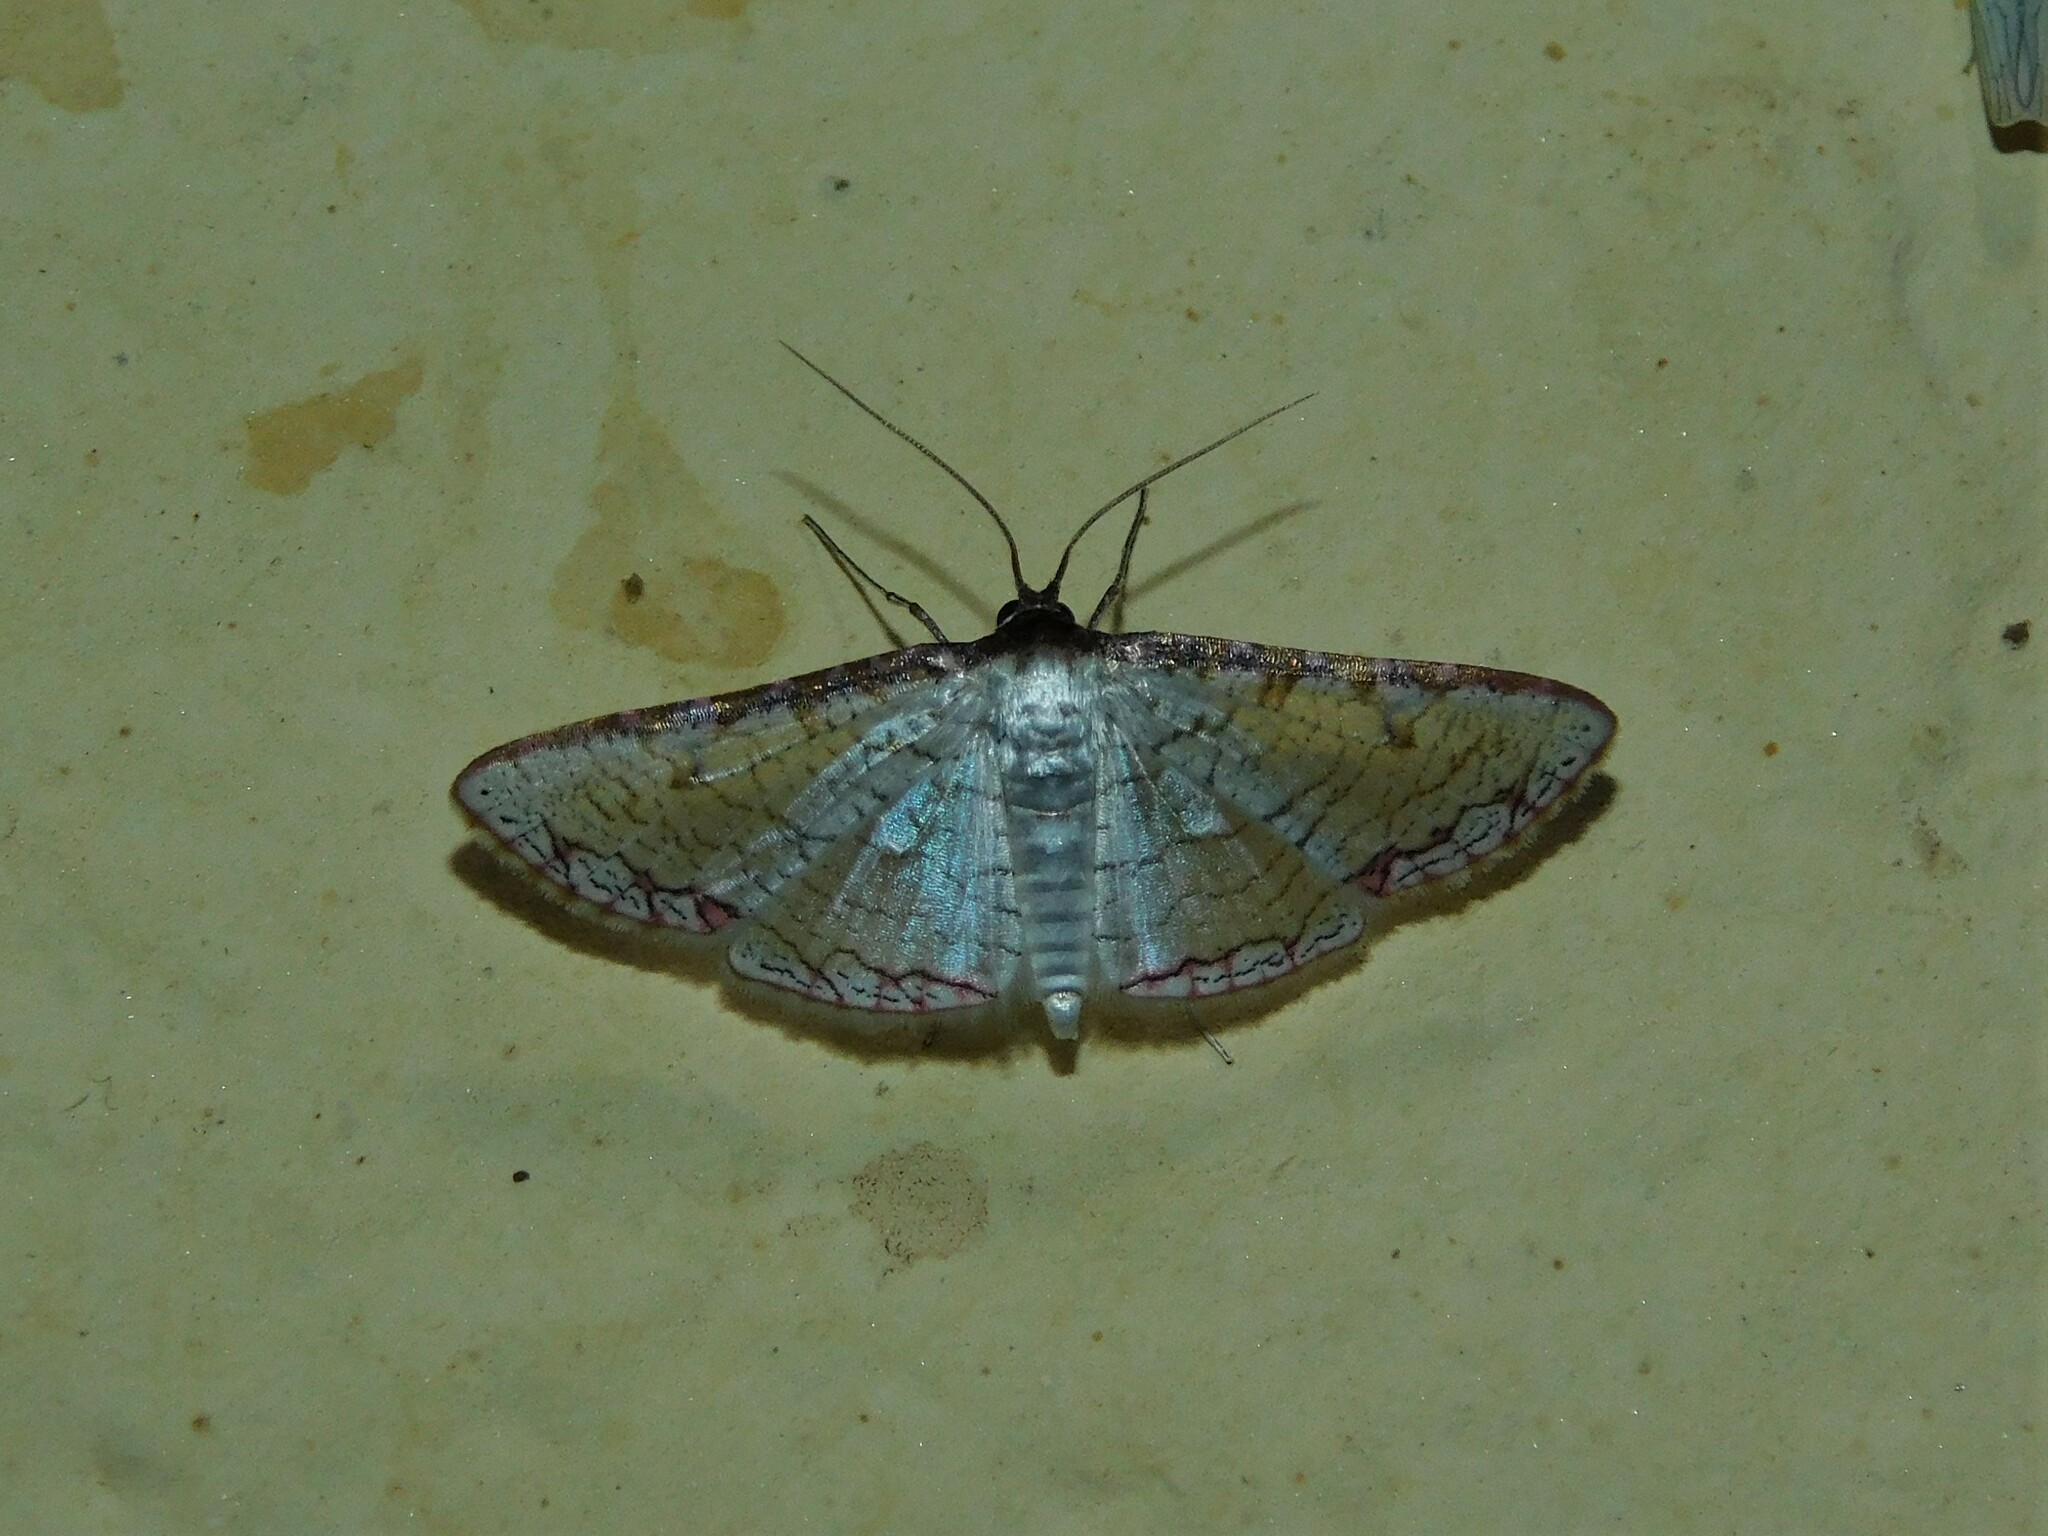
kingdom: Animalia
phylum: Arthropoda
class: Insecta
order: Lepidoptera
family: Thyrididae
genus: Rhodoneura
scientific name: Rhodoneura serraticornis
